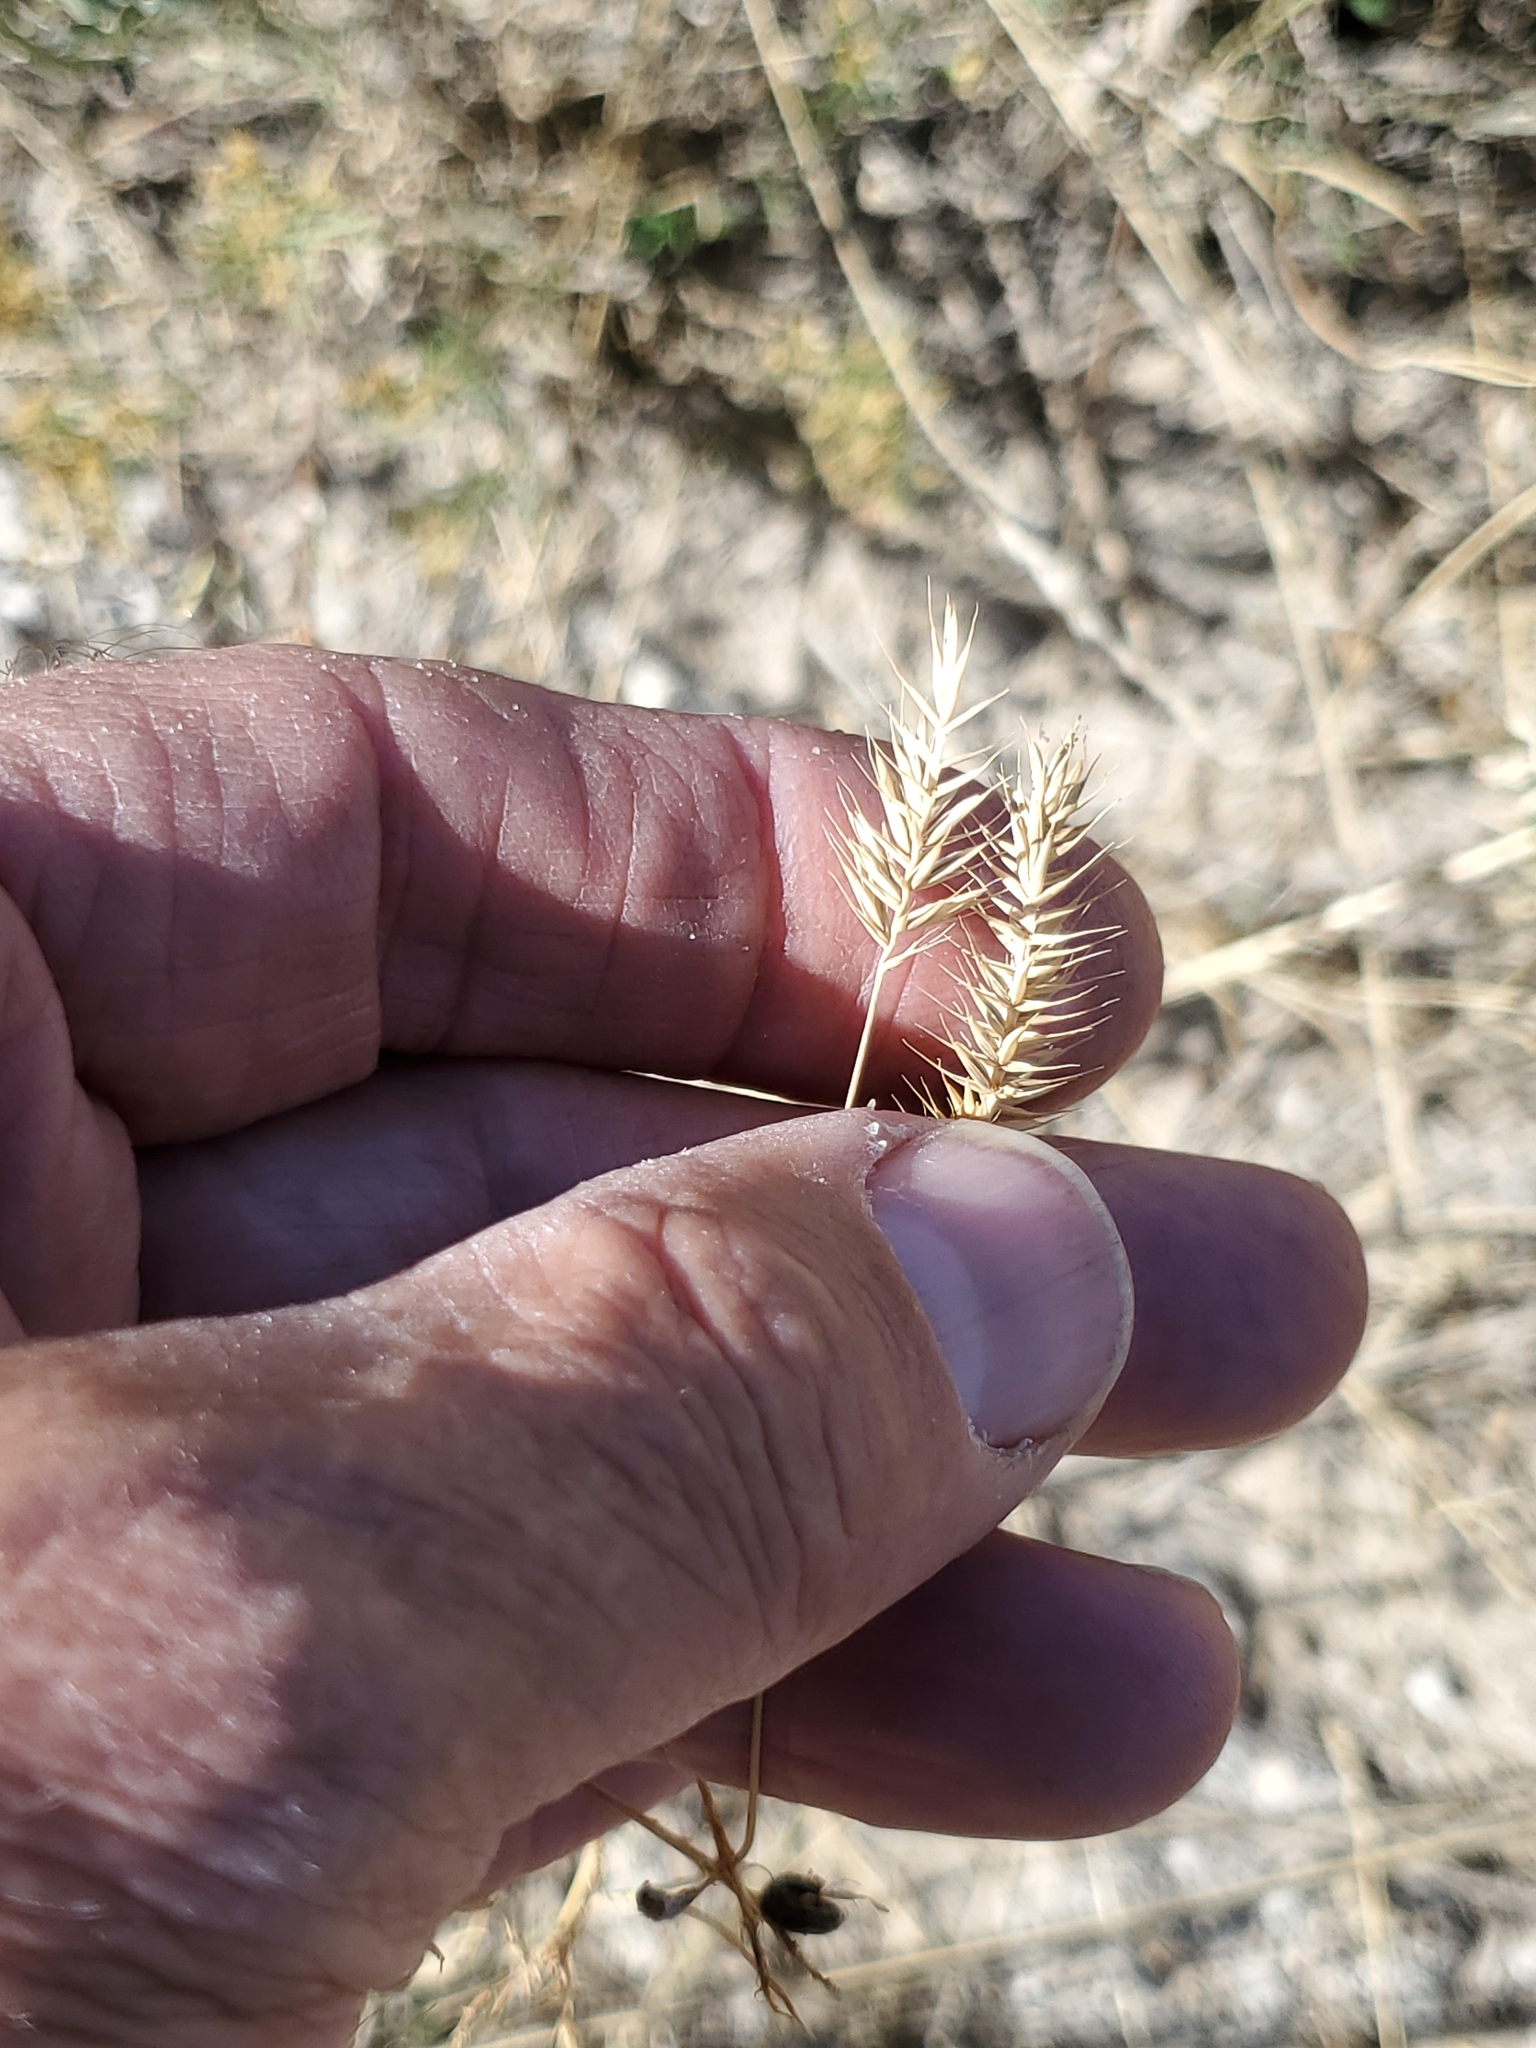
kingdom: Plantae
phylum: Tracheophyta
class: Liliopsida
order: Poales
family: Poaceae
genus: Agropyron
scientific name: Agropyron cristatum
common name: Crested wheatgrass
